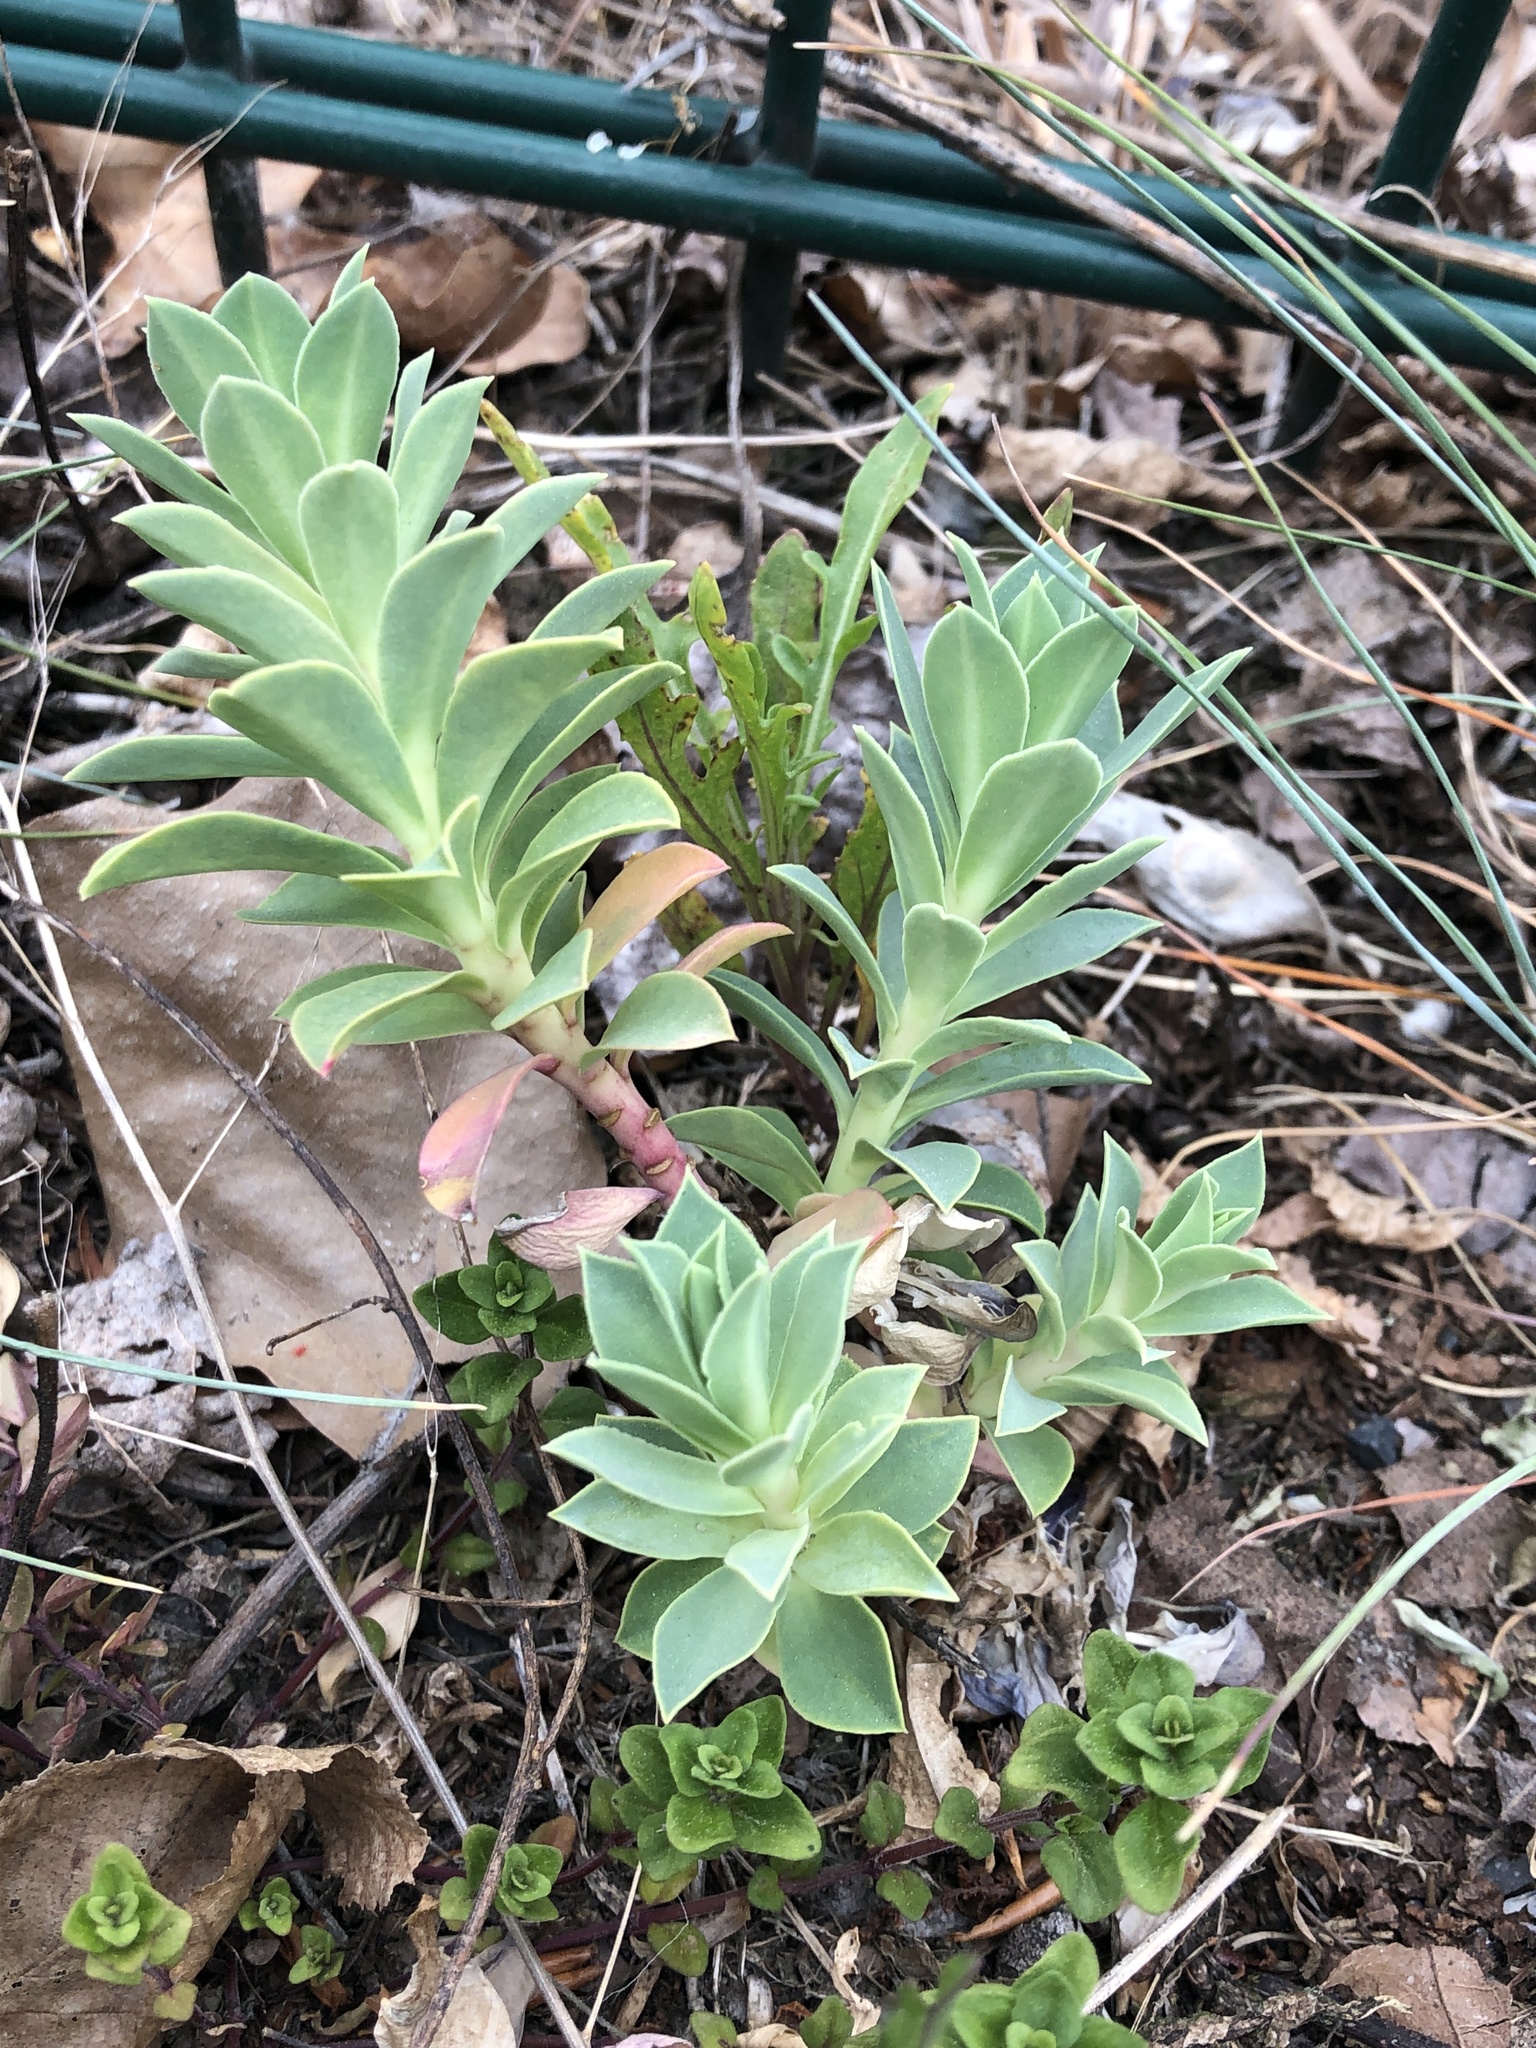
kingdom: Plantae
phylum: Tracheophyta
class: Magnoliopsida
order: Malpighiales
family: Euphorbiaceae
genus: Euphorbia
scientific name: Euphorbia myrsinites
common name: Myrtle spurge
